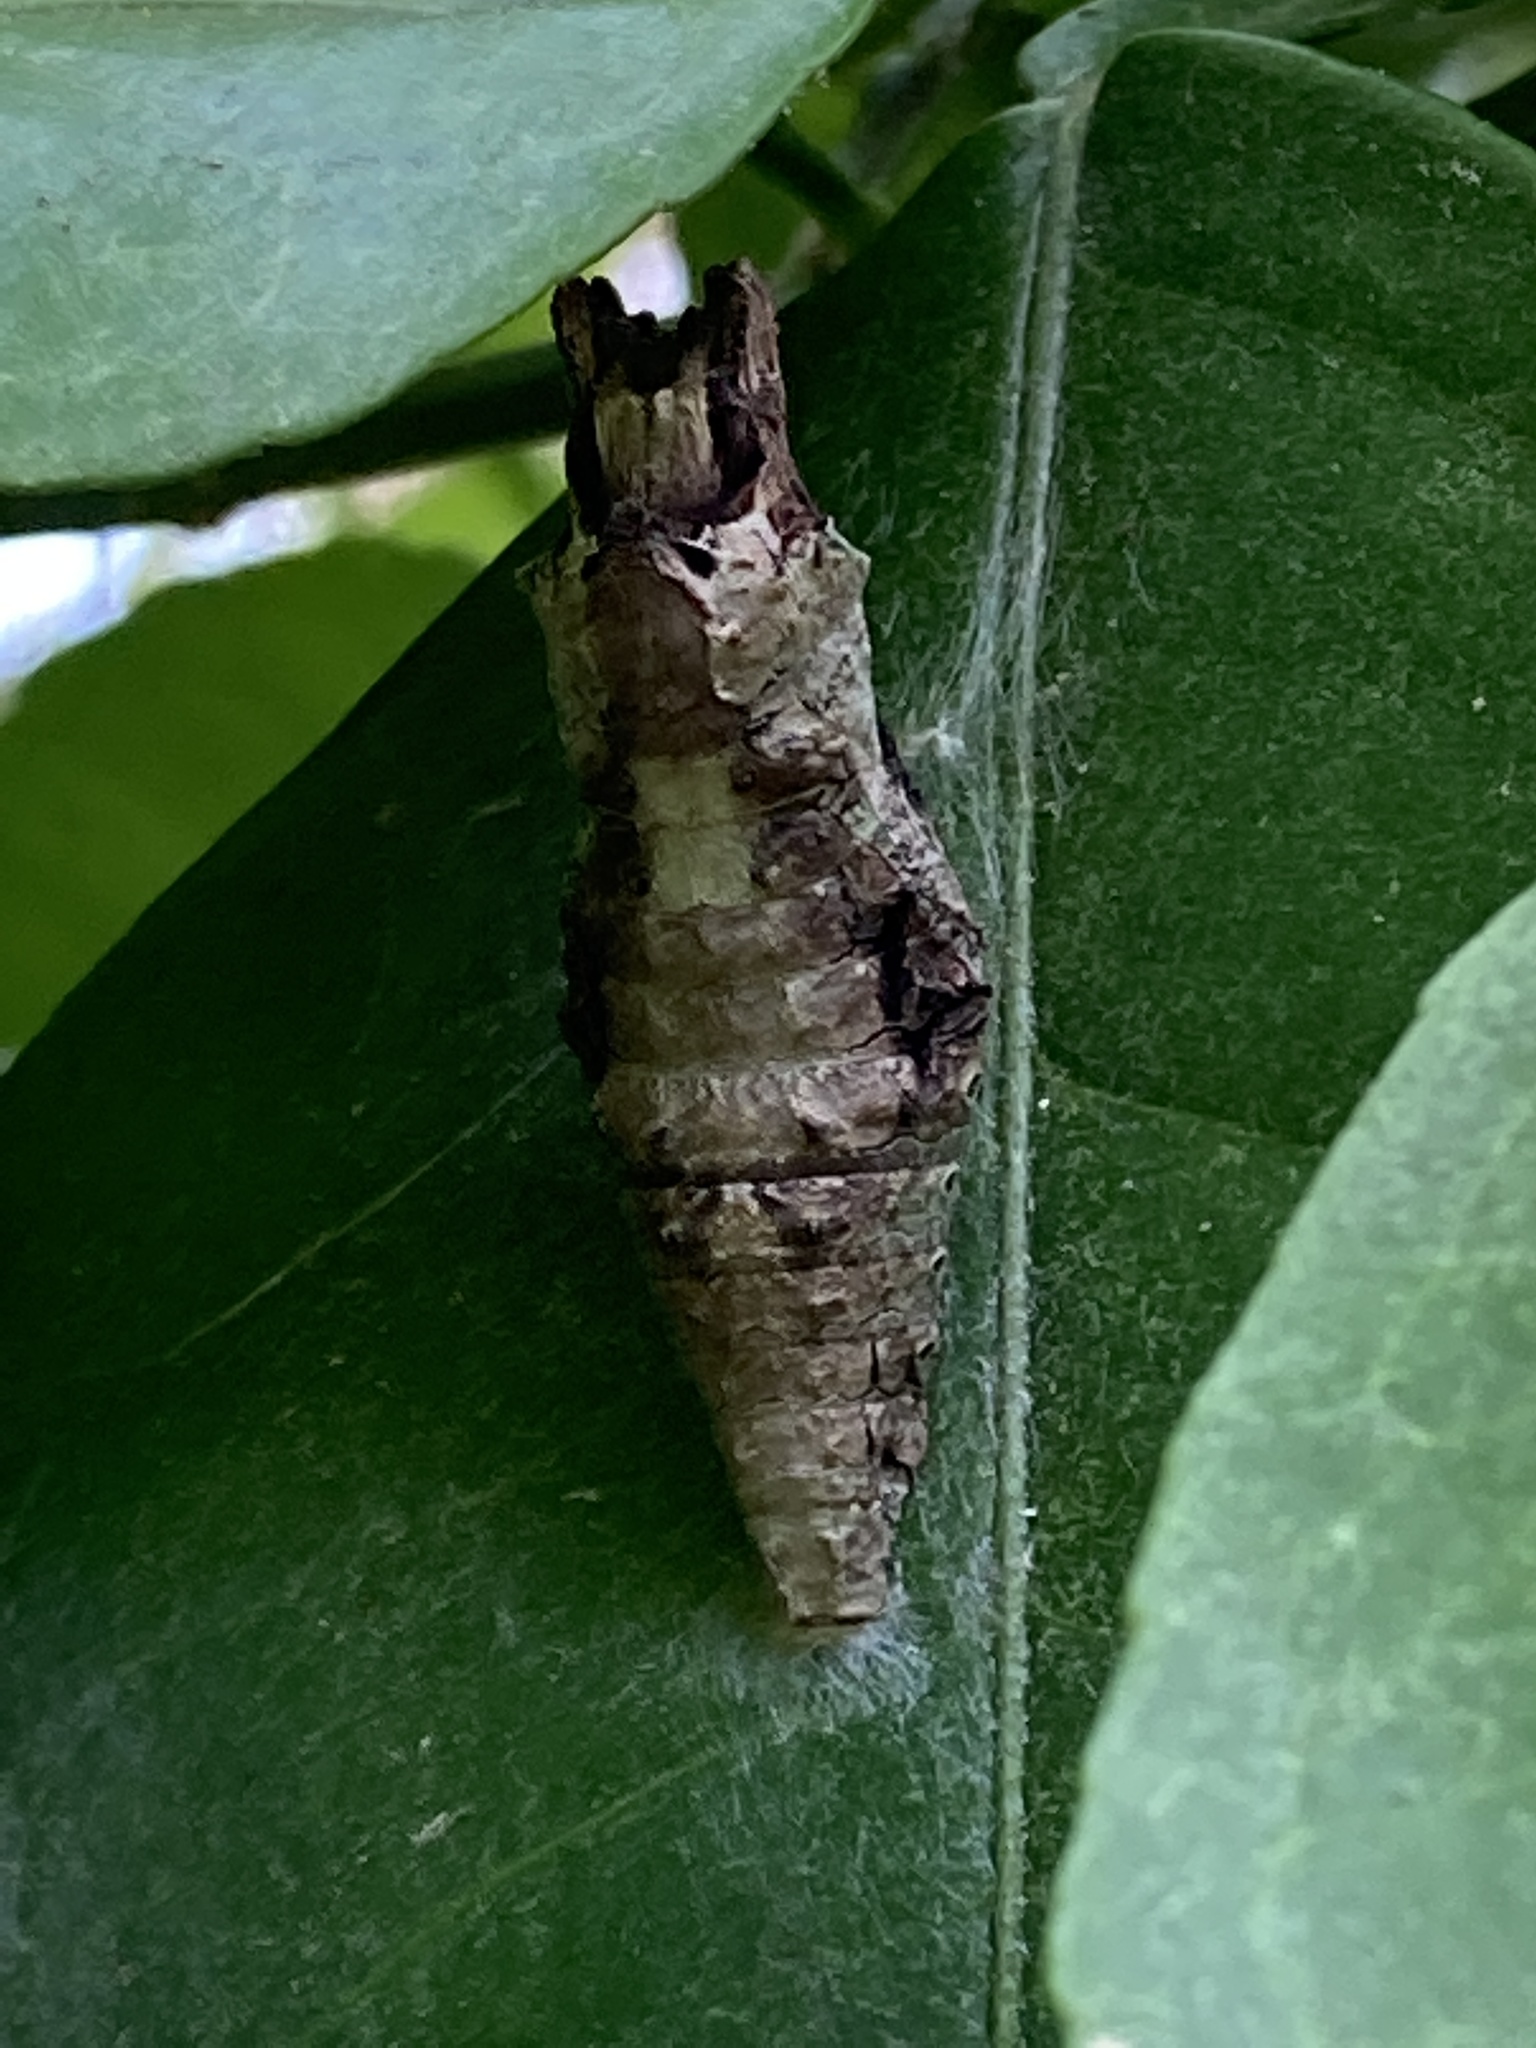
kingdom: Animalia
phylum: Arthropoda
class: Insecta
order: Lepidoptera
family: Papilionidae
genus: Papilio
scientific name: Papilio cresphontes
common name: Giant swallowtail
